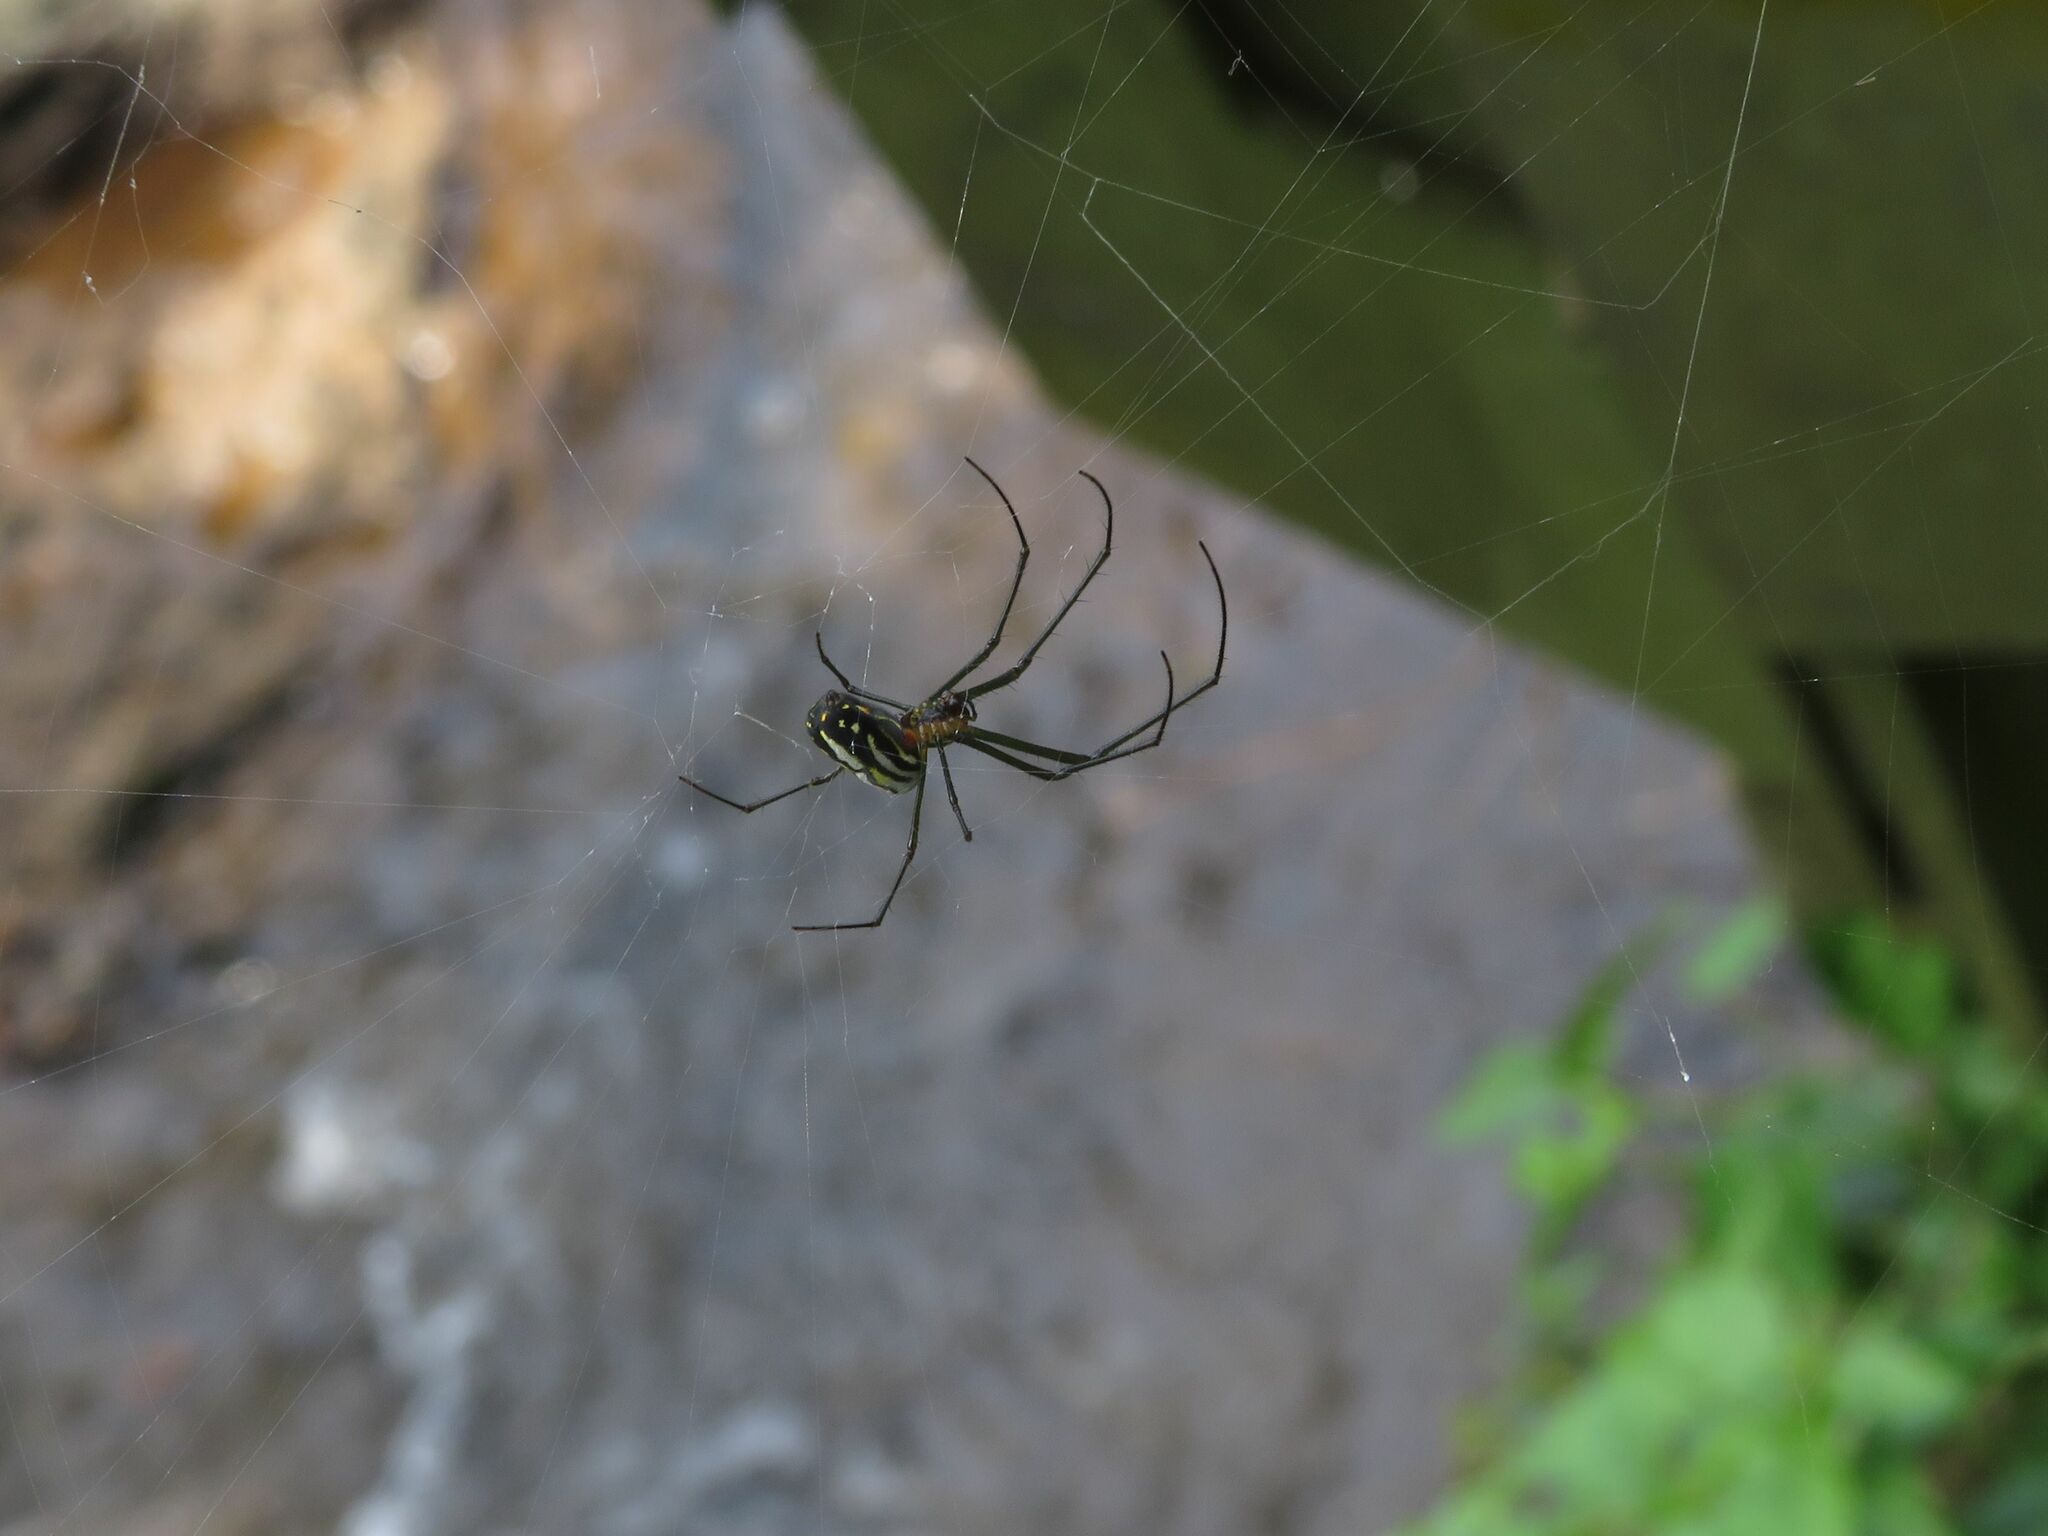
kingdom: Animalia
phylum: Arthropoda
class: Arachnida
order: Araneae
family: Tetragnathidae
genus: Leucauge
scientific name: Leucauge argyra
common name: Longjawed orb weavers
